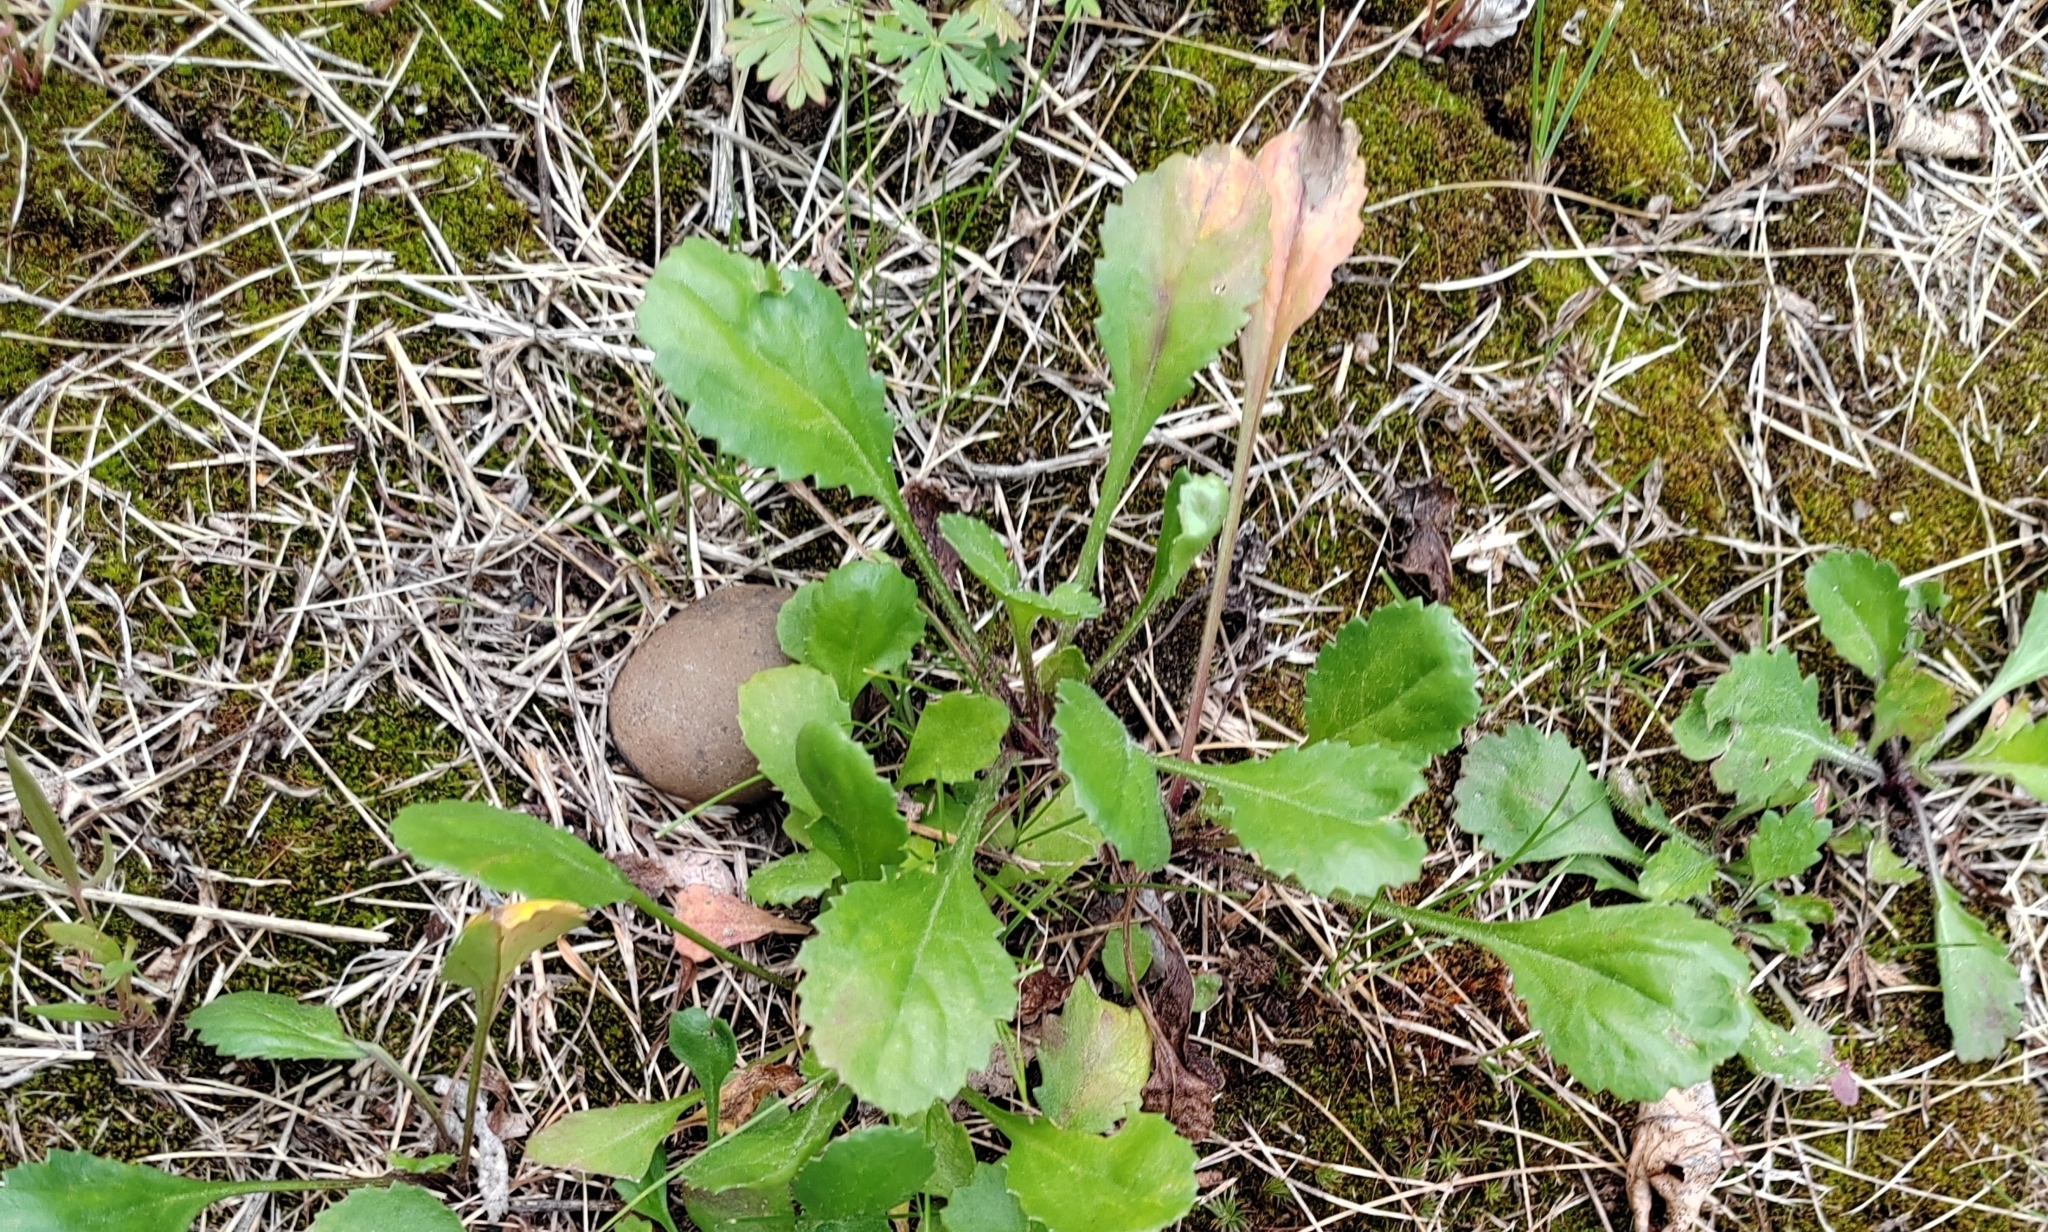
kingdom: Plantae
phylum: Tracheophyta
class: Magnoliopsida
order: Asterales
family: Asteraceae
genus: Leucanthemum
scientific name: Leucanthemum ircutianum
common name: Daisy
